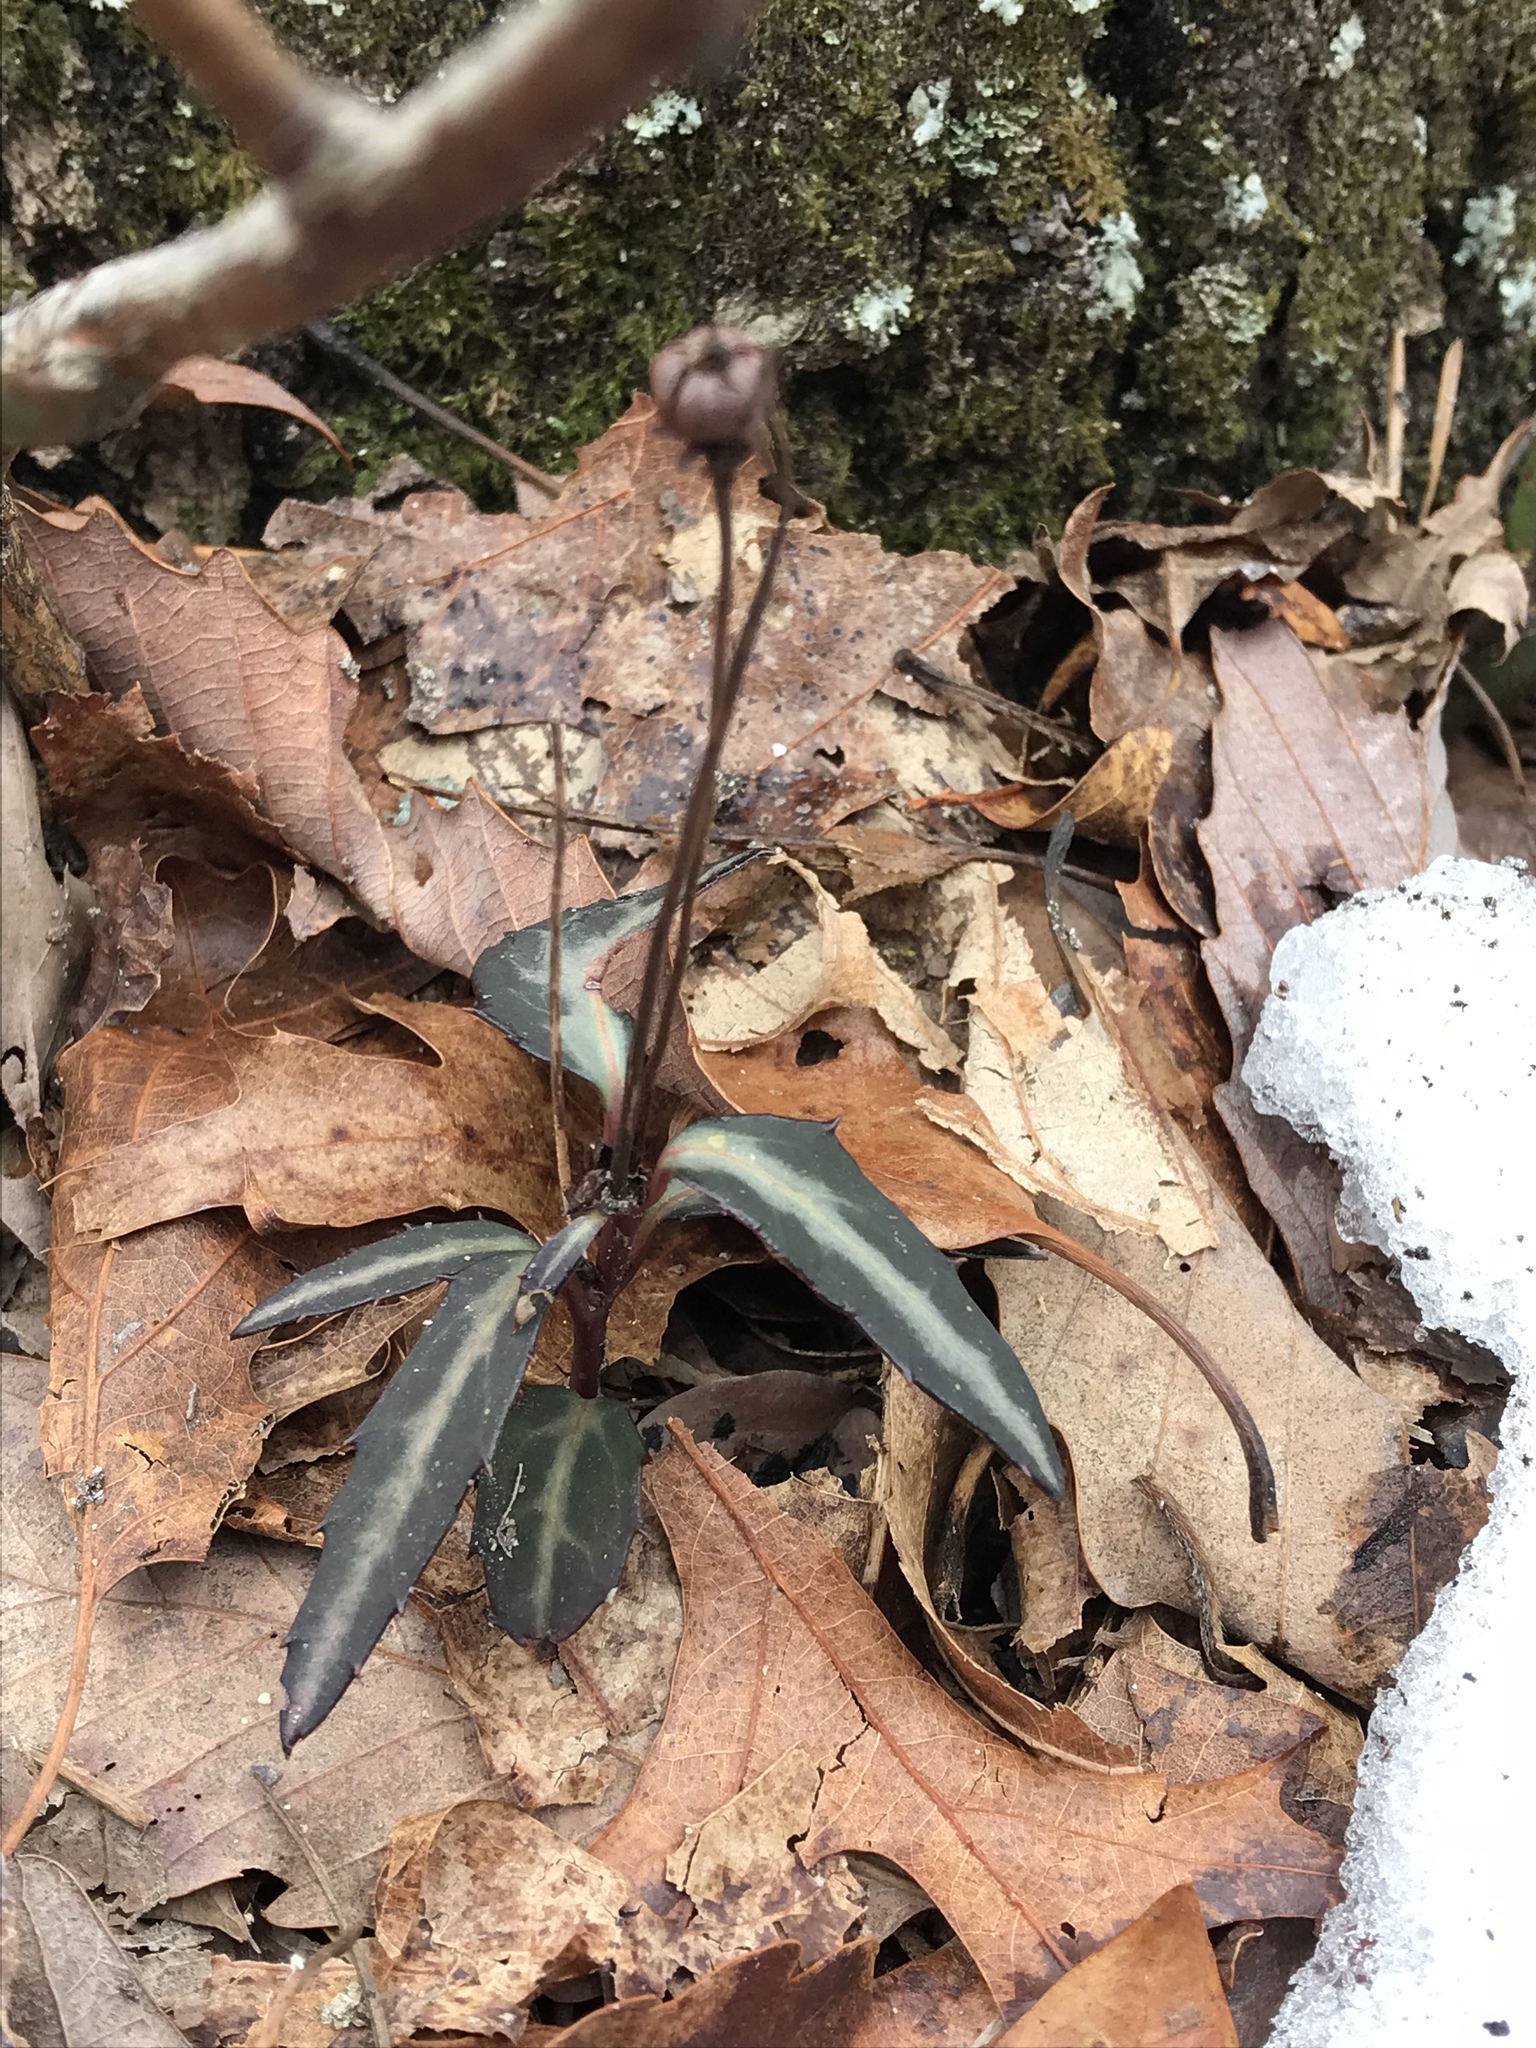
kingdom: Plantae
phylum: Tracheophyta
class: Magnoliopsida
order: Ericales
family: Ericaceae
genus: Chimaphila
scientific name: Chimaphila maculata
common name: Spotted pipsissewa
